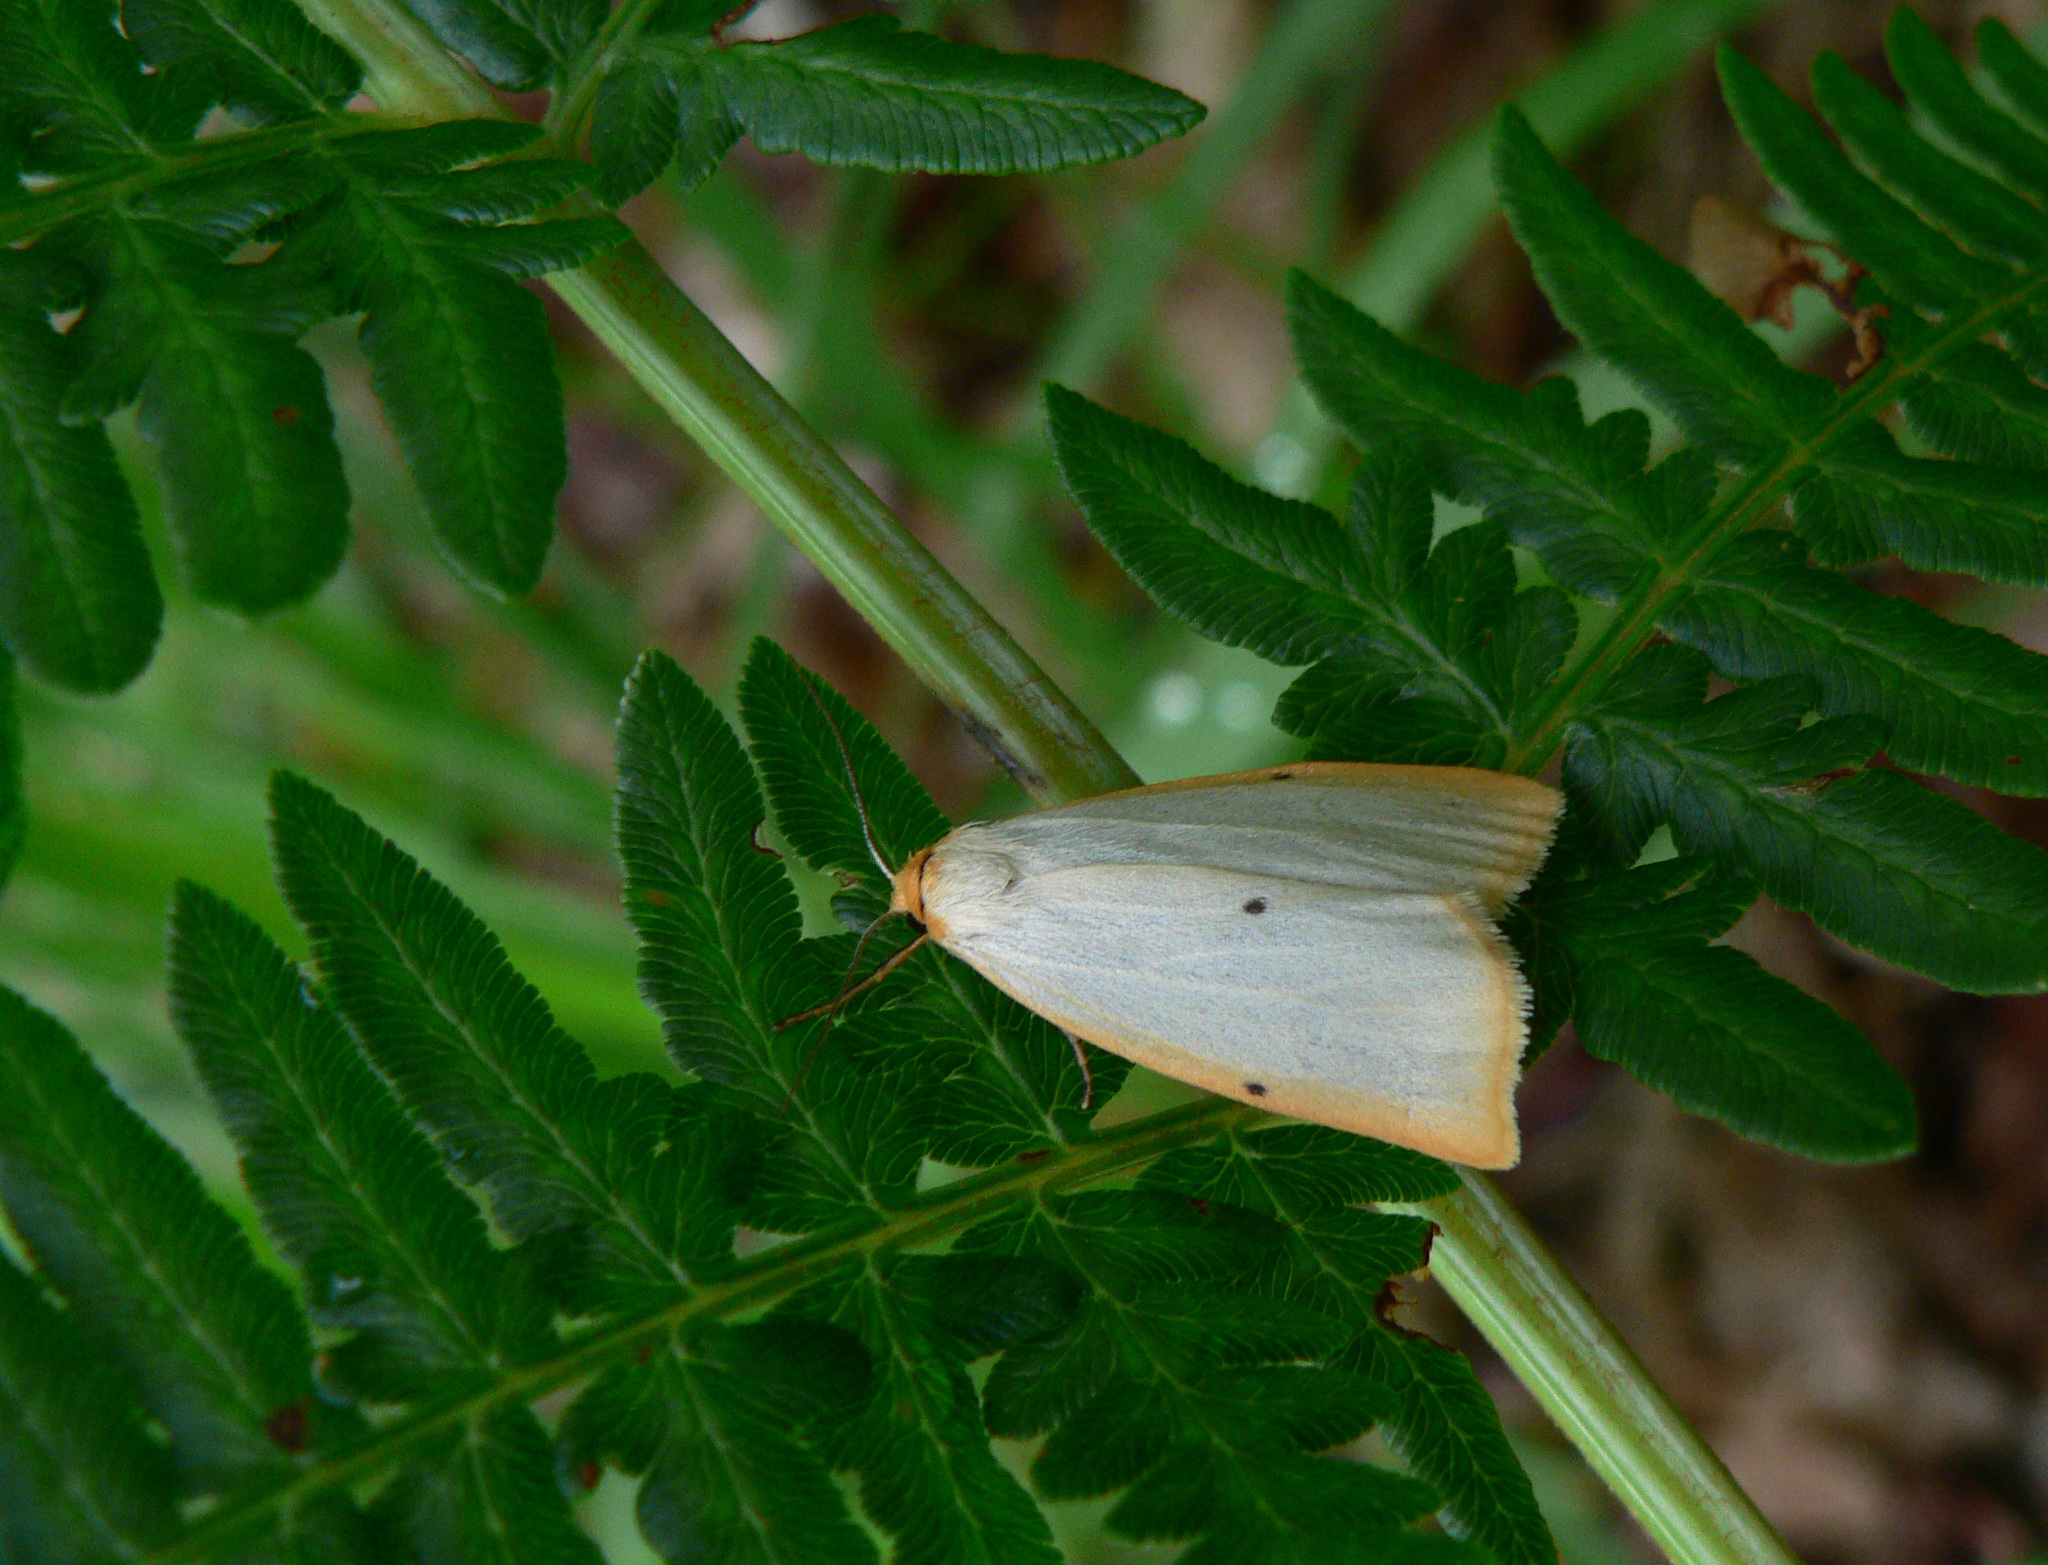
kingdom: Animalia
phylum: Arthropoda
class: Insecta
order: Lepidoptera
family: Erebidae
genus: Cybosia
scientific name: Cybosia mesomella
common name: Four-dotted footman
